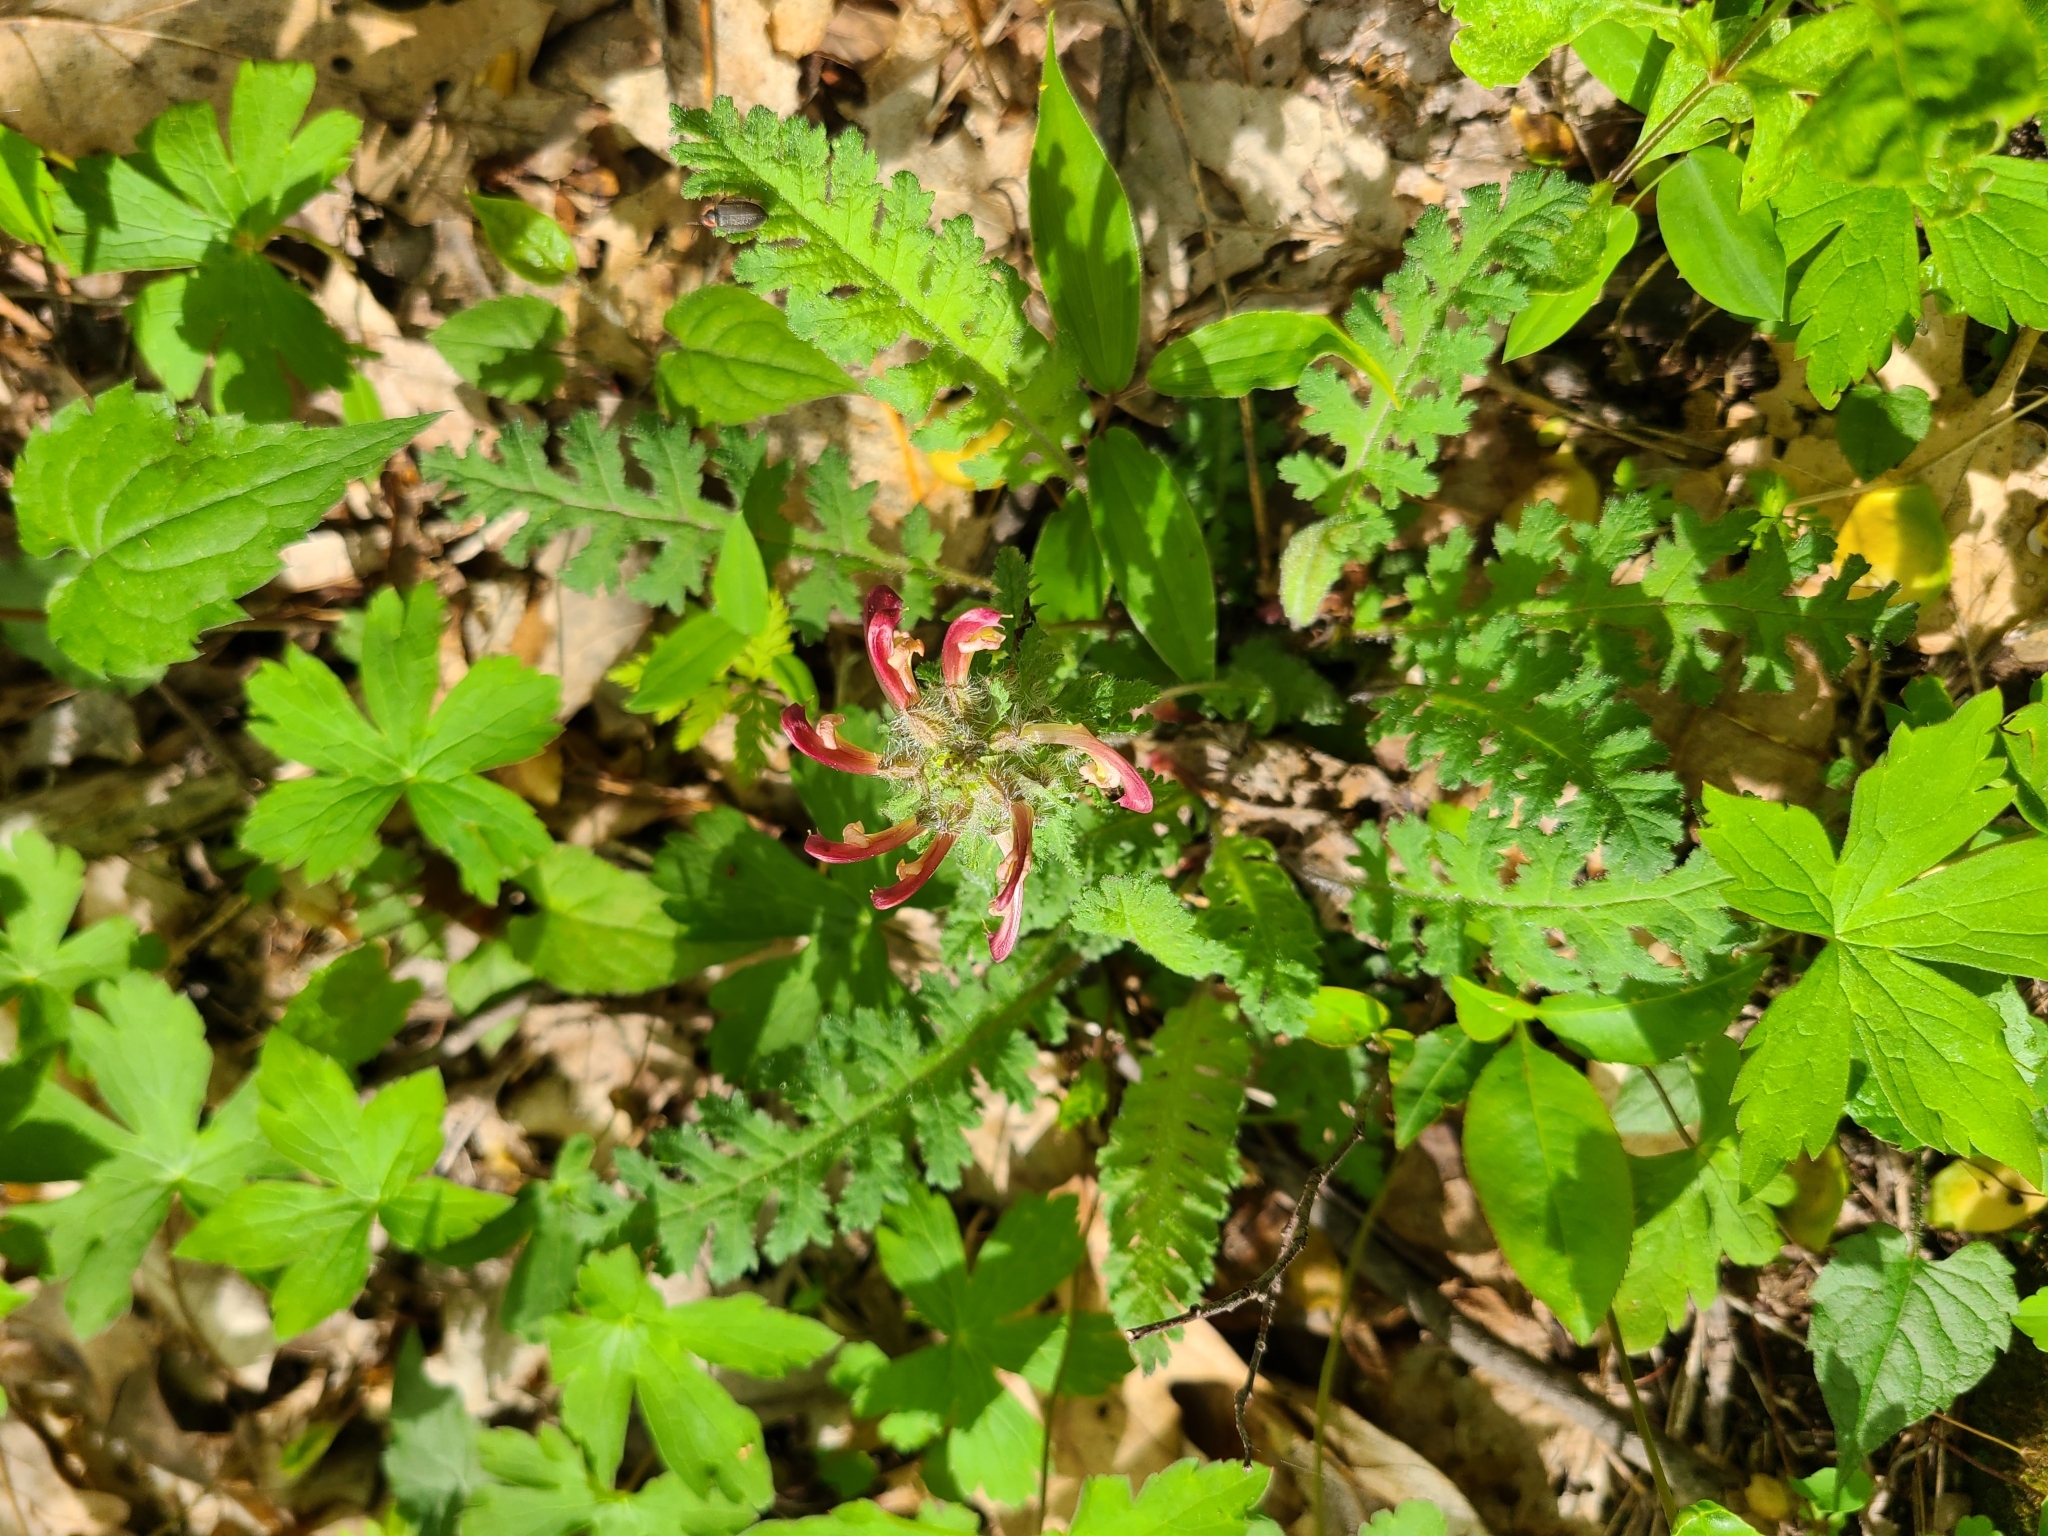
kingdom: Plantae
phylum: Tracheophyta
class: Magnoliopsida
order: Lamiales
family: Orobanchaceae
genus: Pedicularis
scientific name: Pedicularis canadensis
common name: Early lousewort
